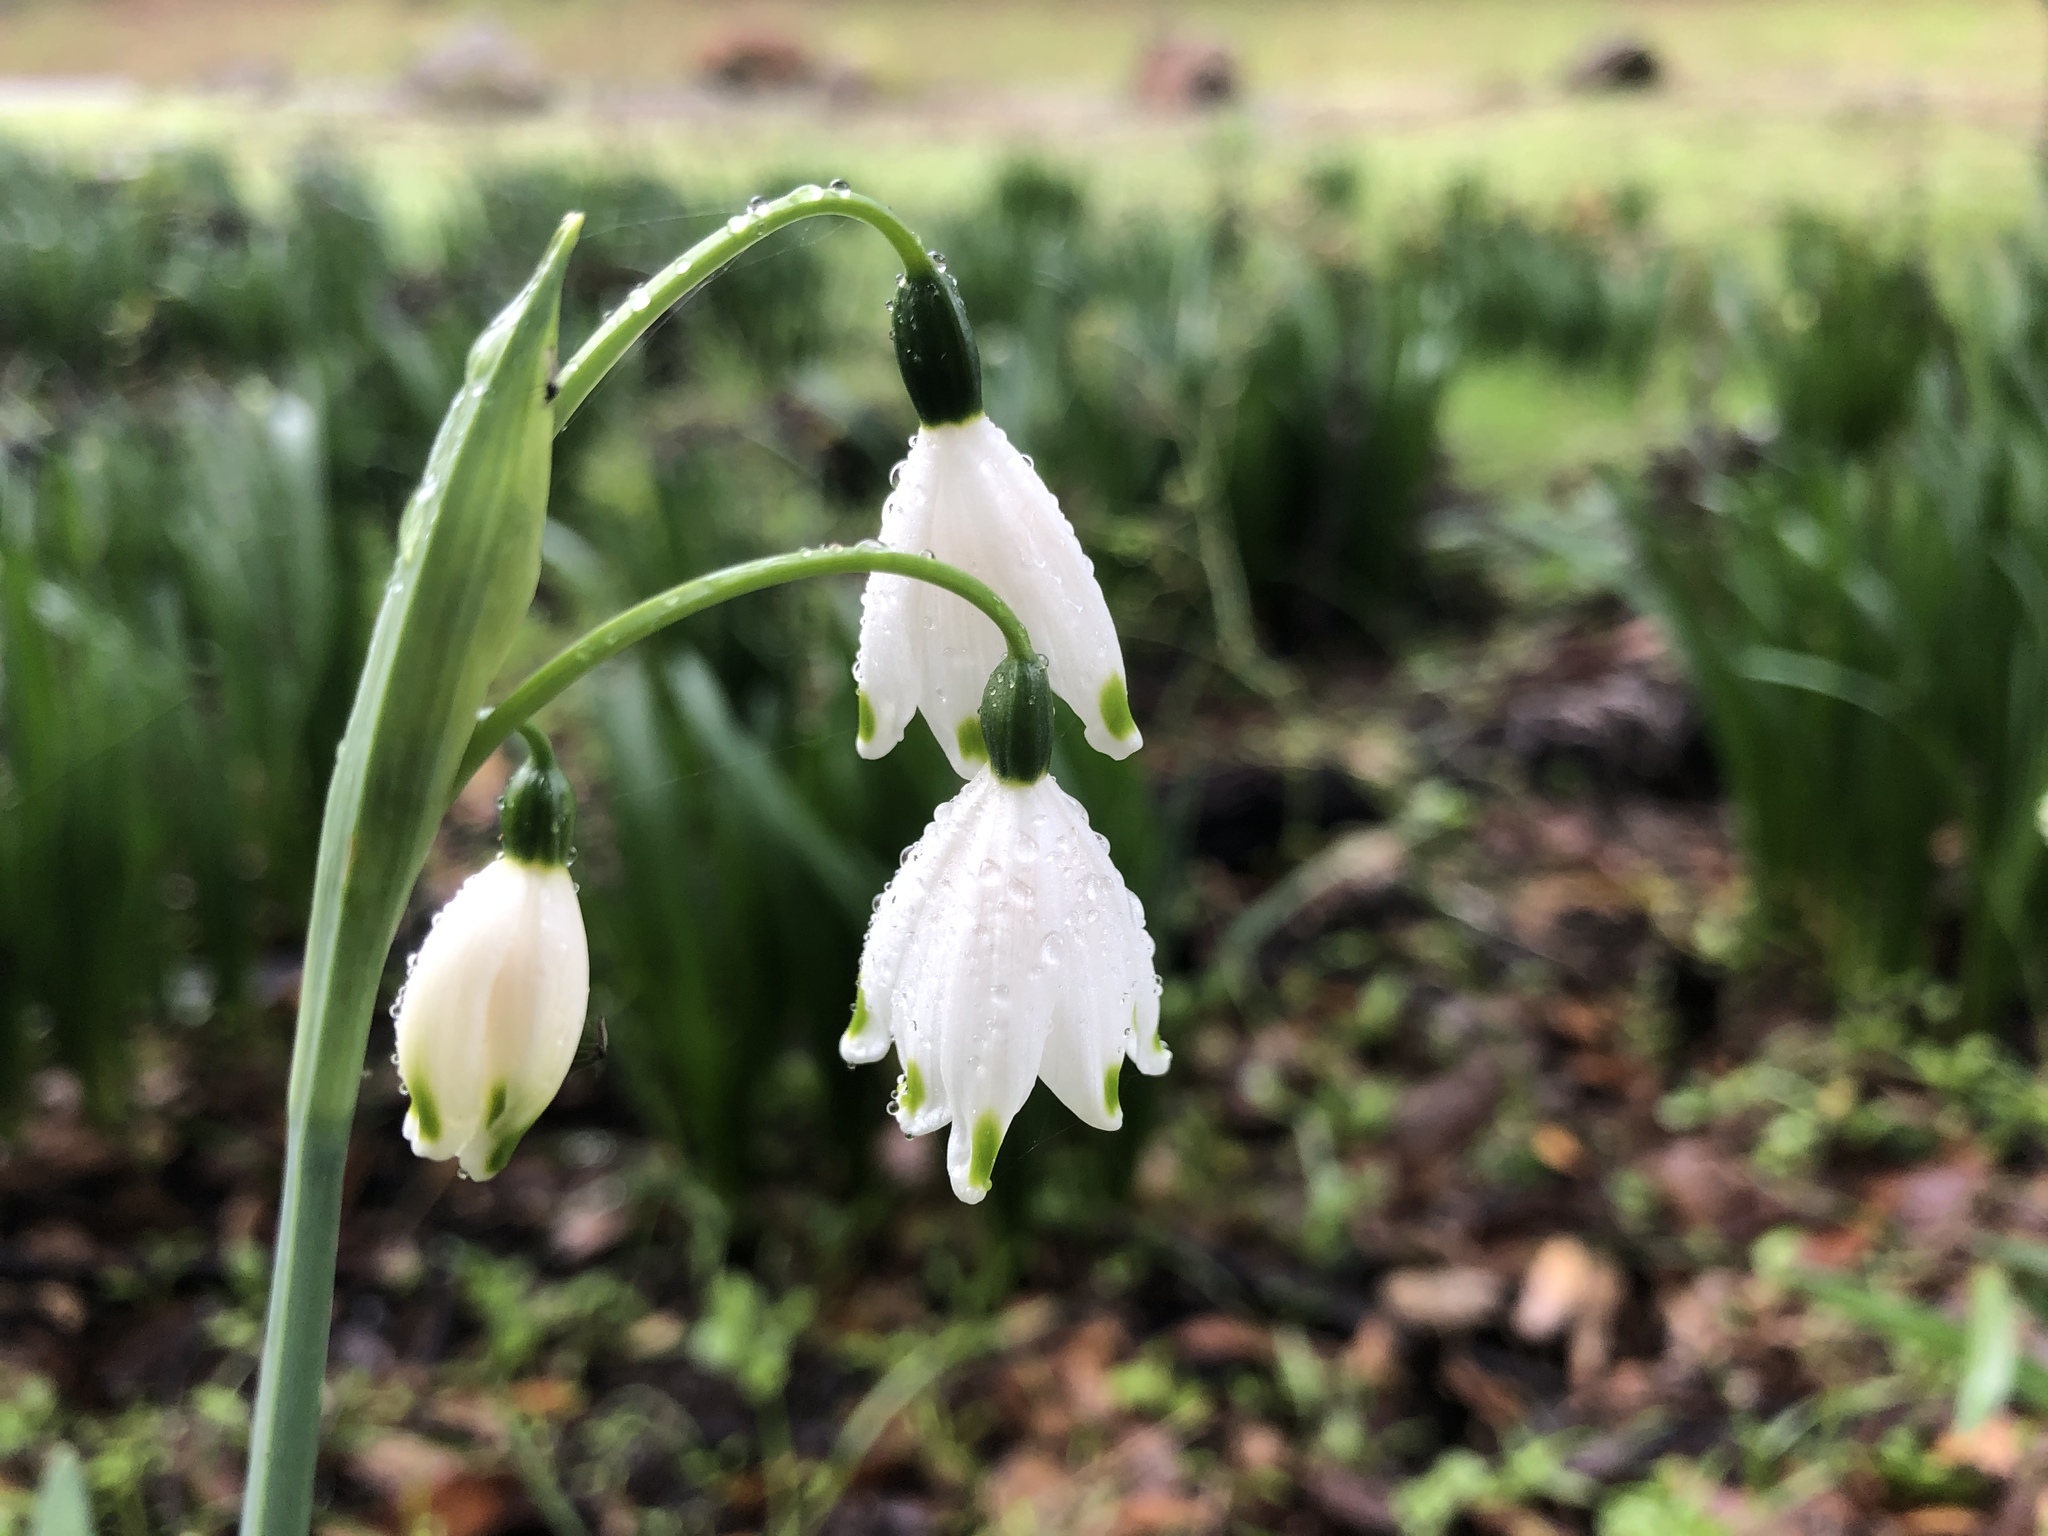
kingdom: Plantae
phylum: Tracheophyta
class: Liliopsida
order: Asparagales
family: Amaryllidaceae
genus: Leucojum
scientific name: Leucojum aestivum
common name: Summer snowflake
